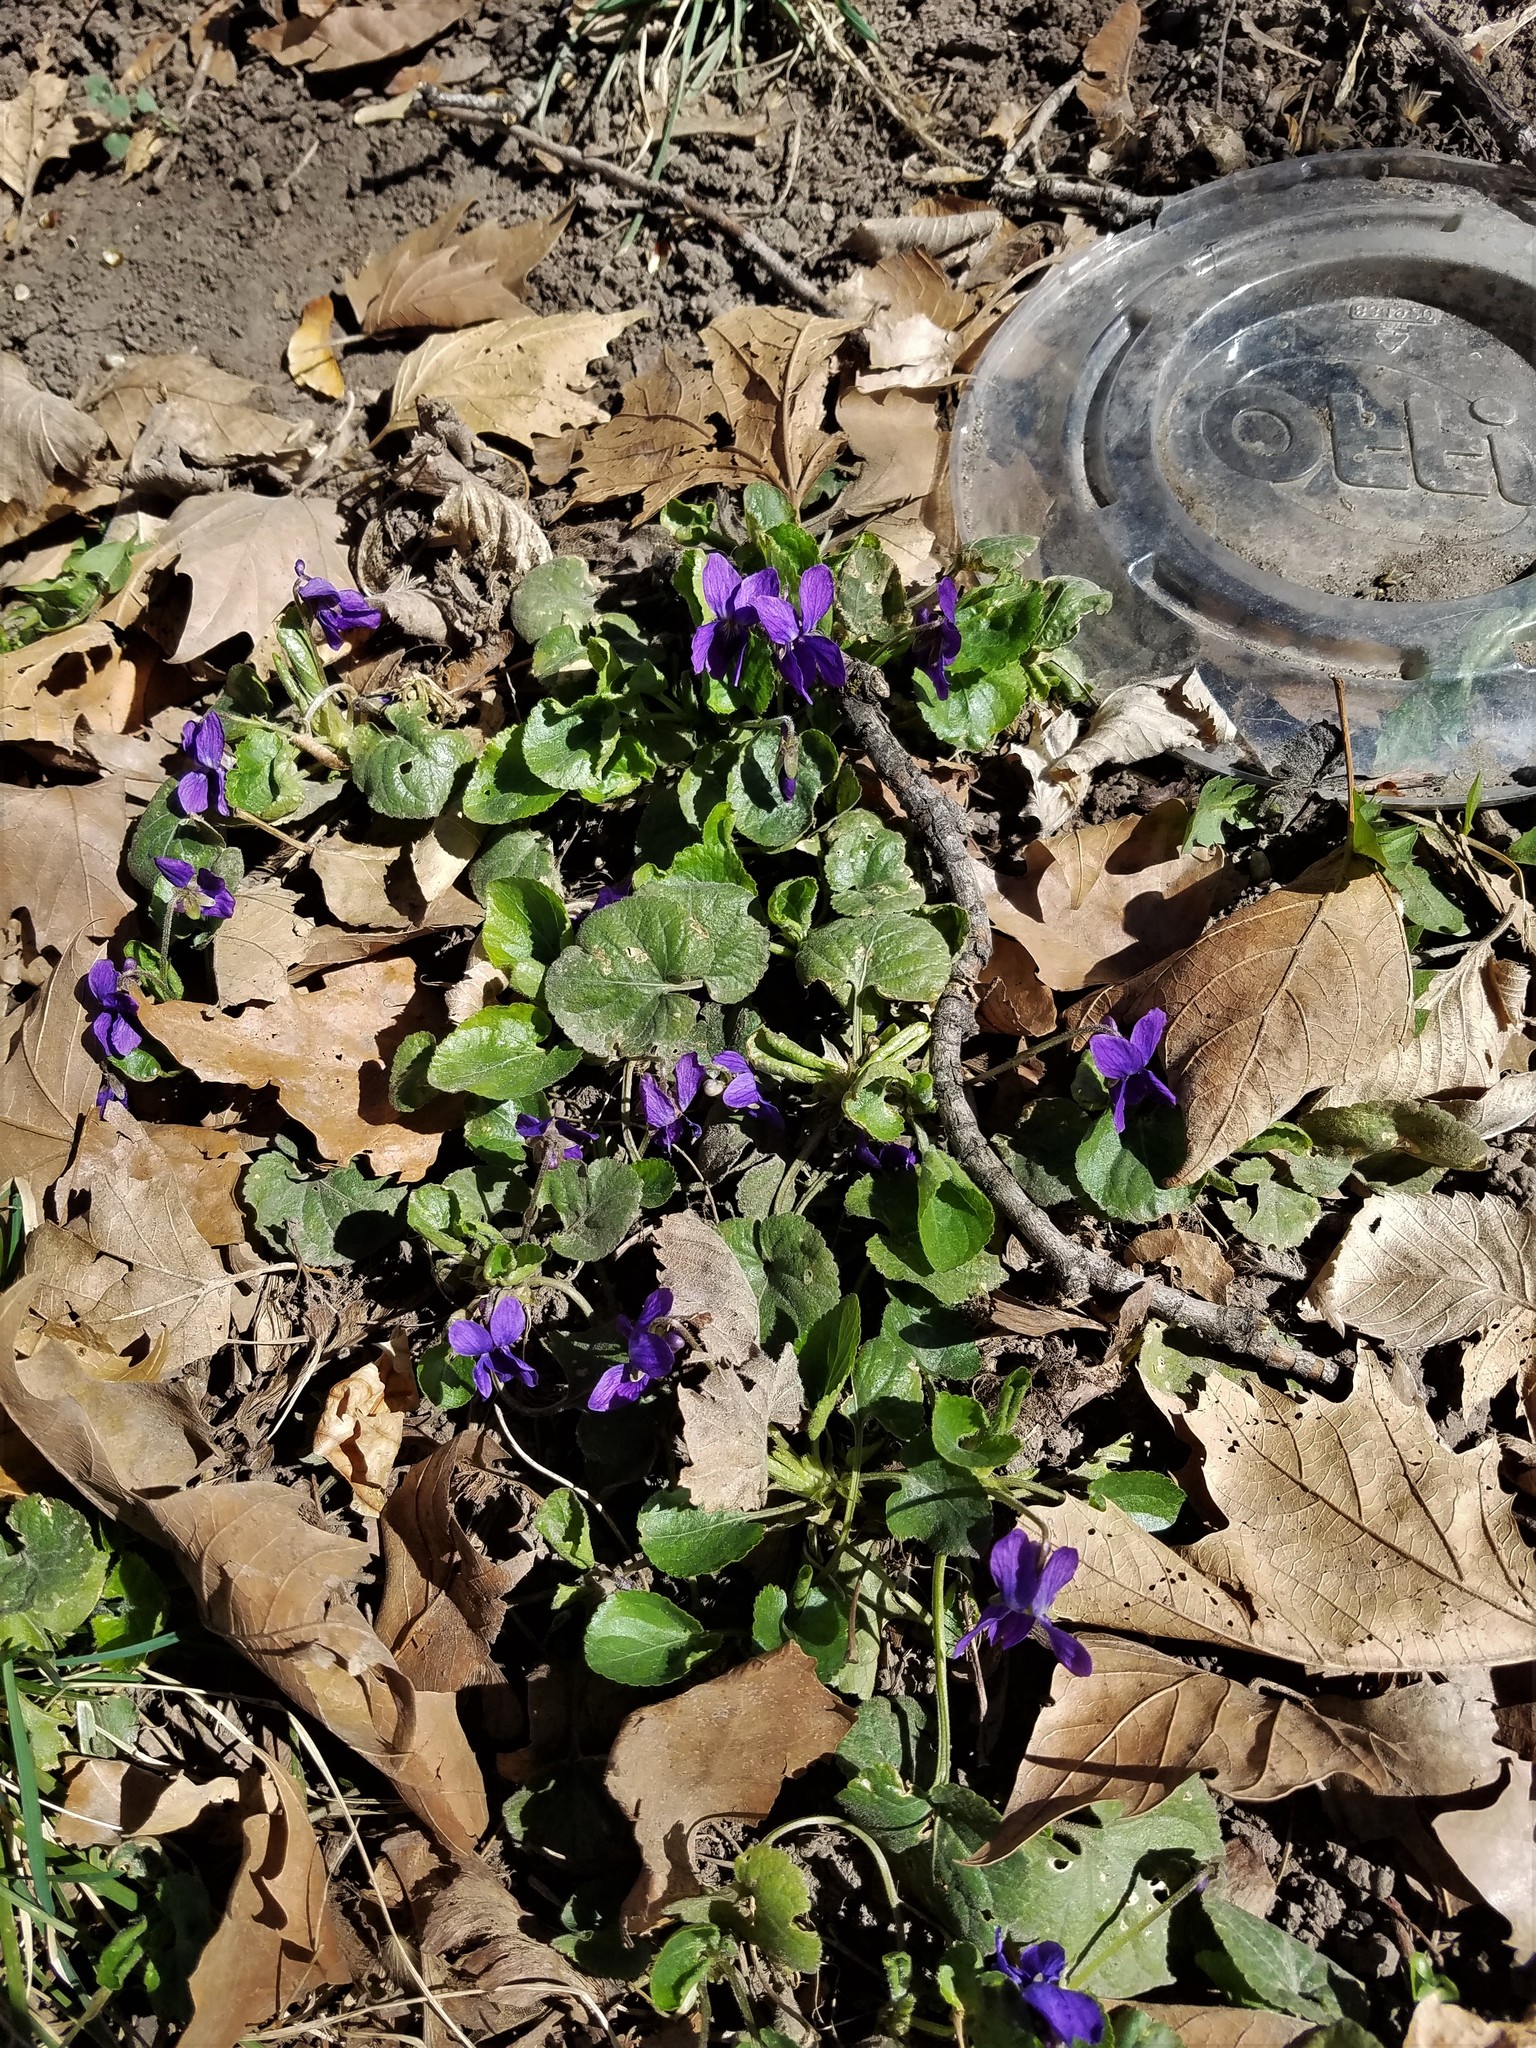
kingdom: Plantae
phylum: Tracheophyta
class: Magnoliopsida
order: Malpighiales
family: Violaceae
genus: Viola
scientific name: Viola odorata
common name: Sweet violet
